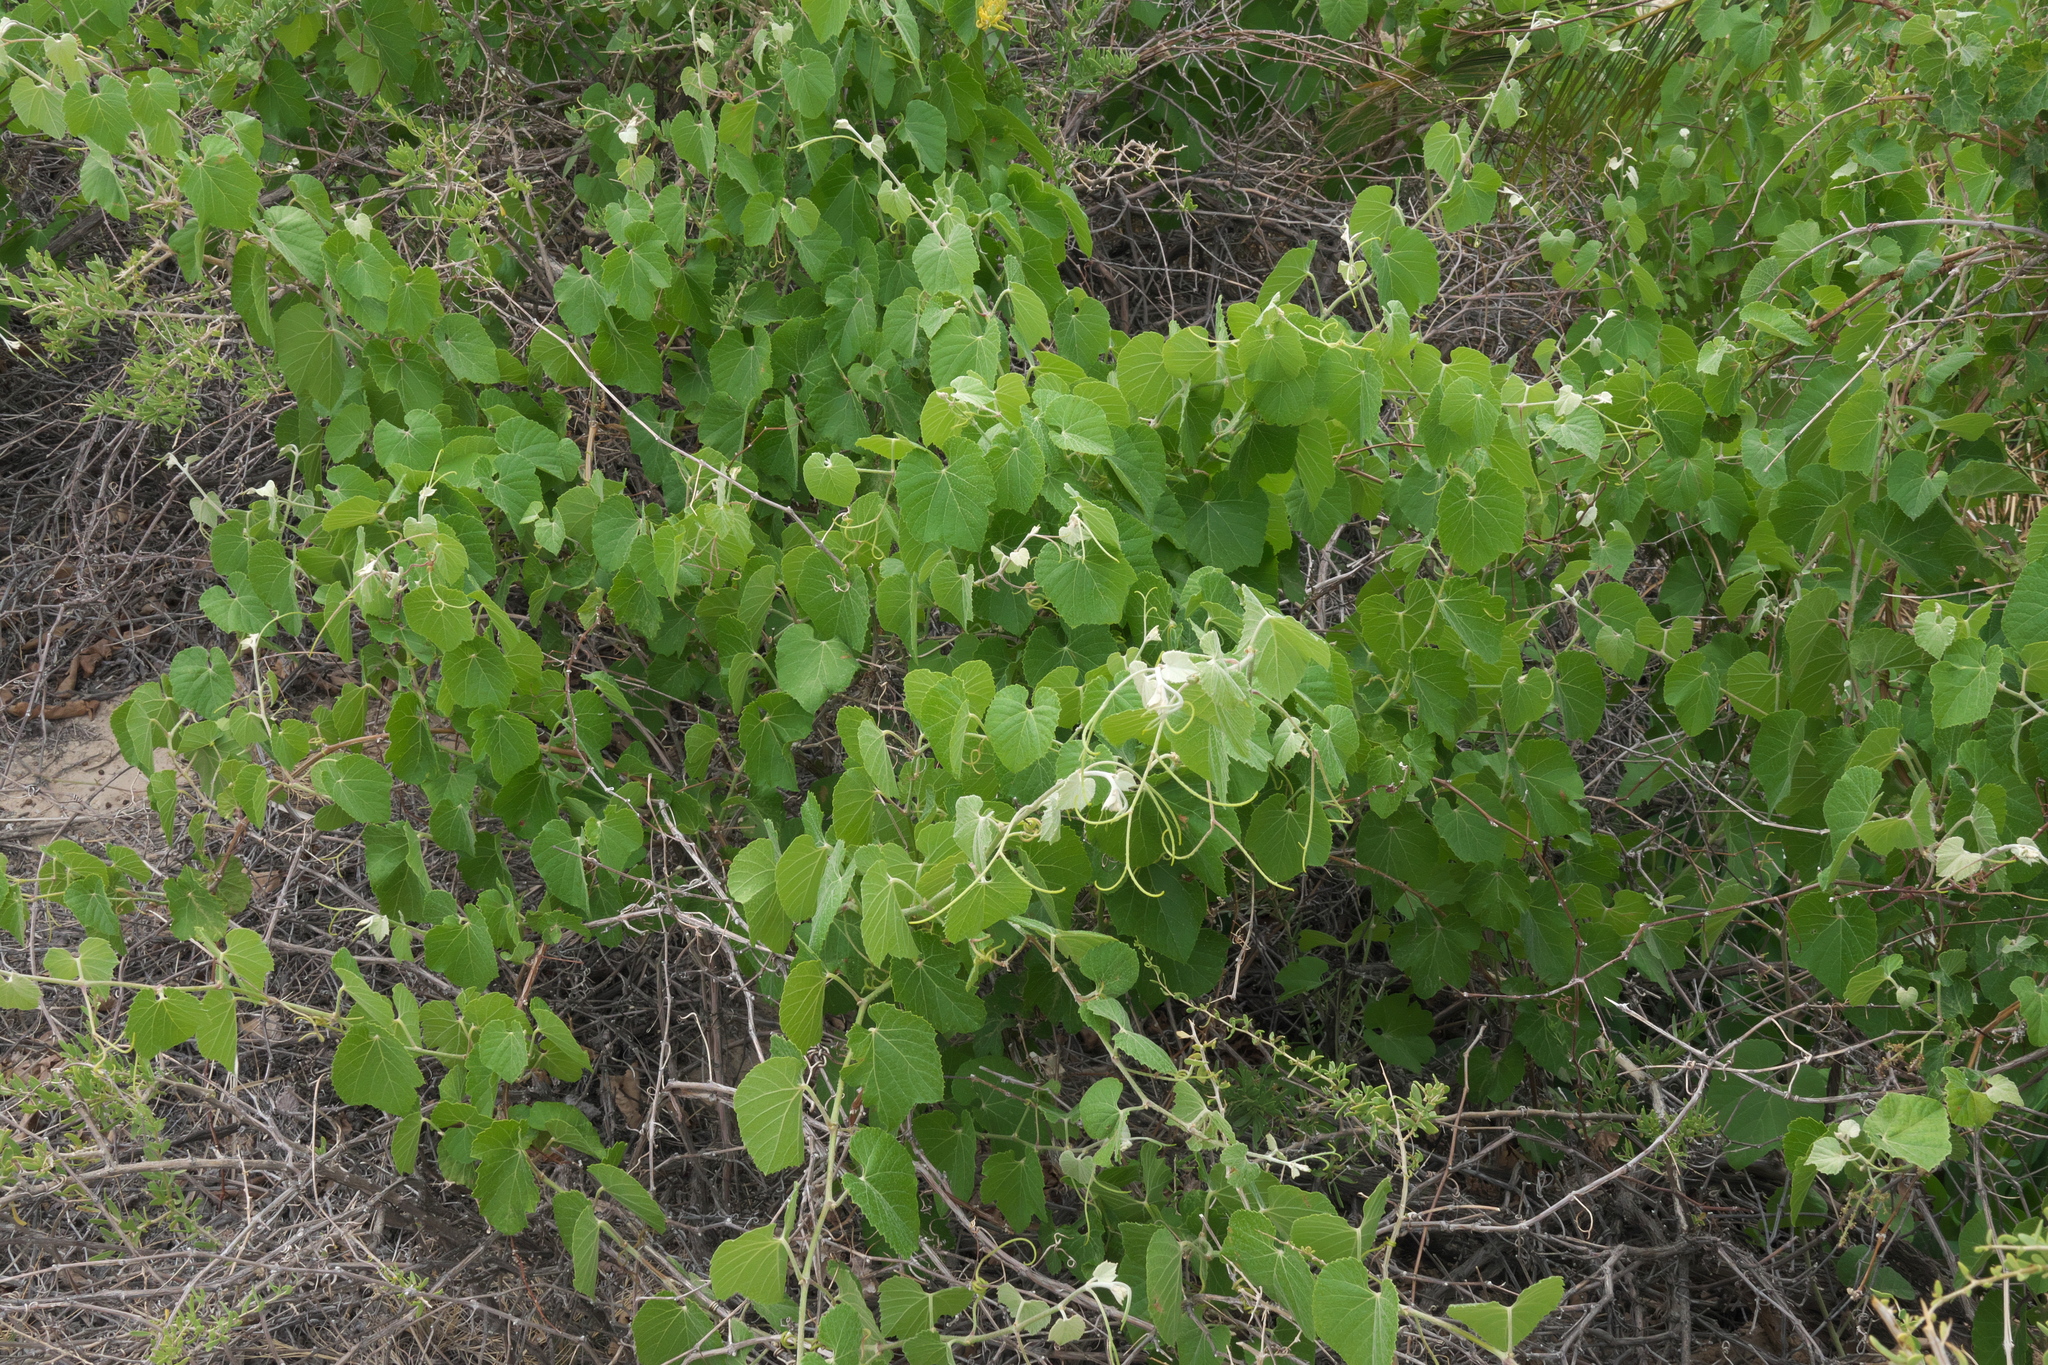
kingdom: Plantae
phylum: Tracheophyta
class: Magnoliopsida
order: Vitales
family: Vitaceae
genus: Vitis
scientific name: Vitis arizonica
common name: Canyon grape
